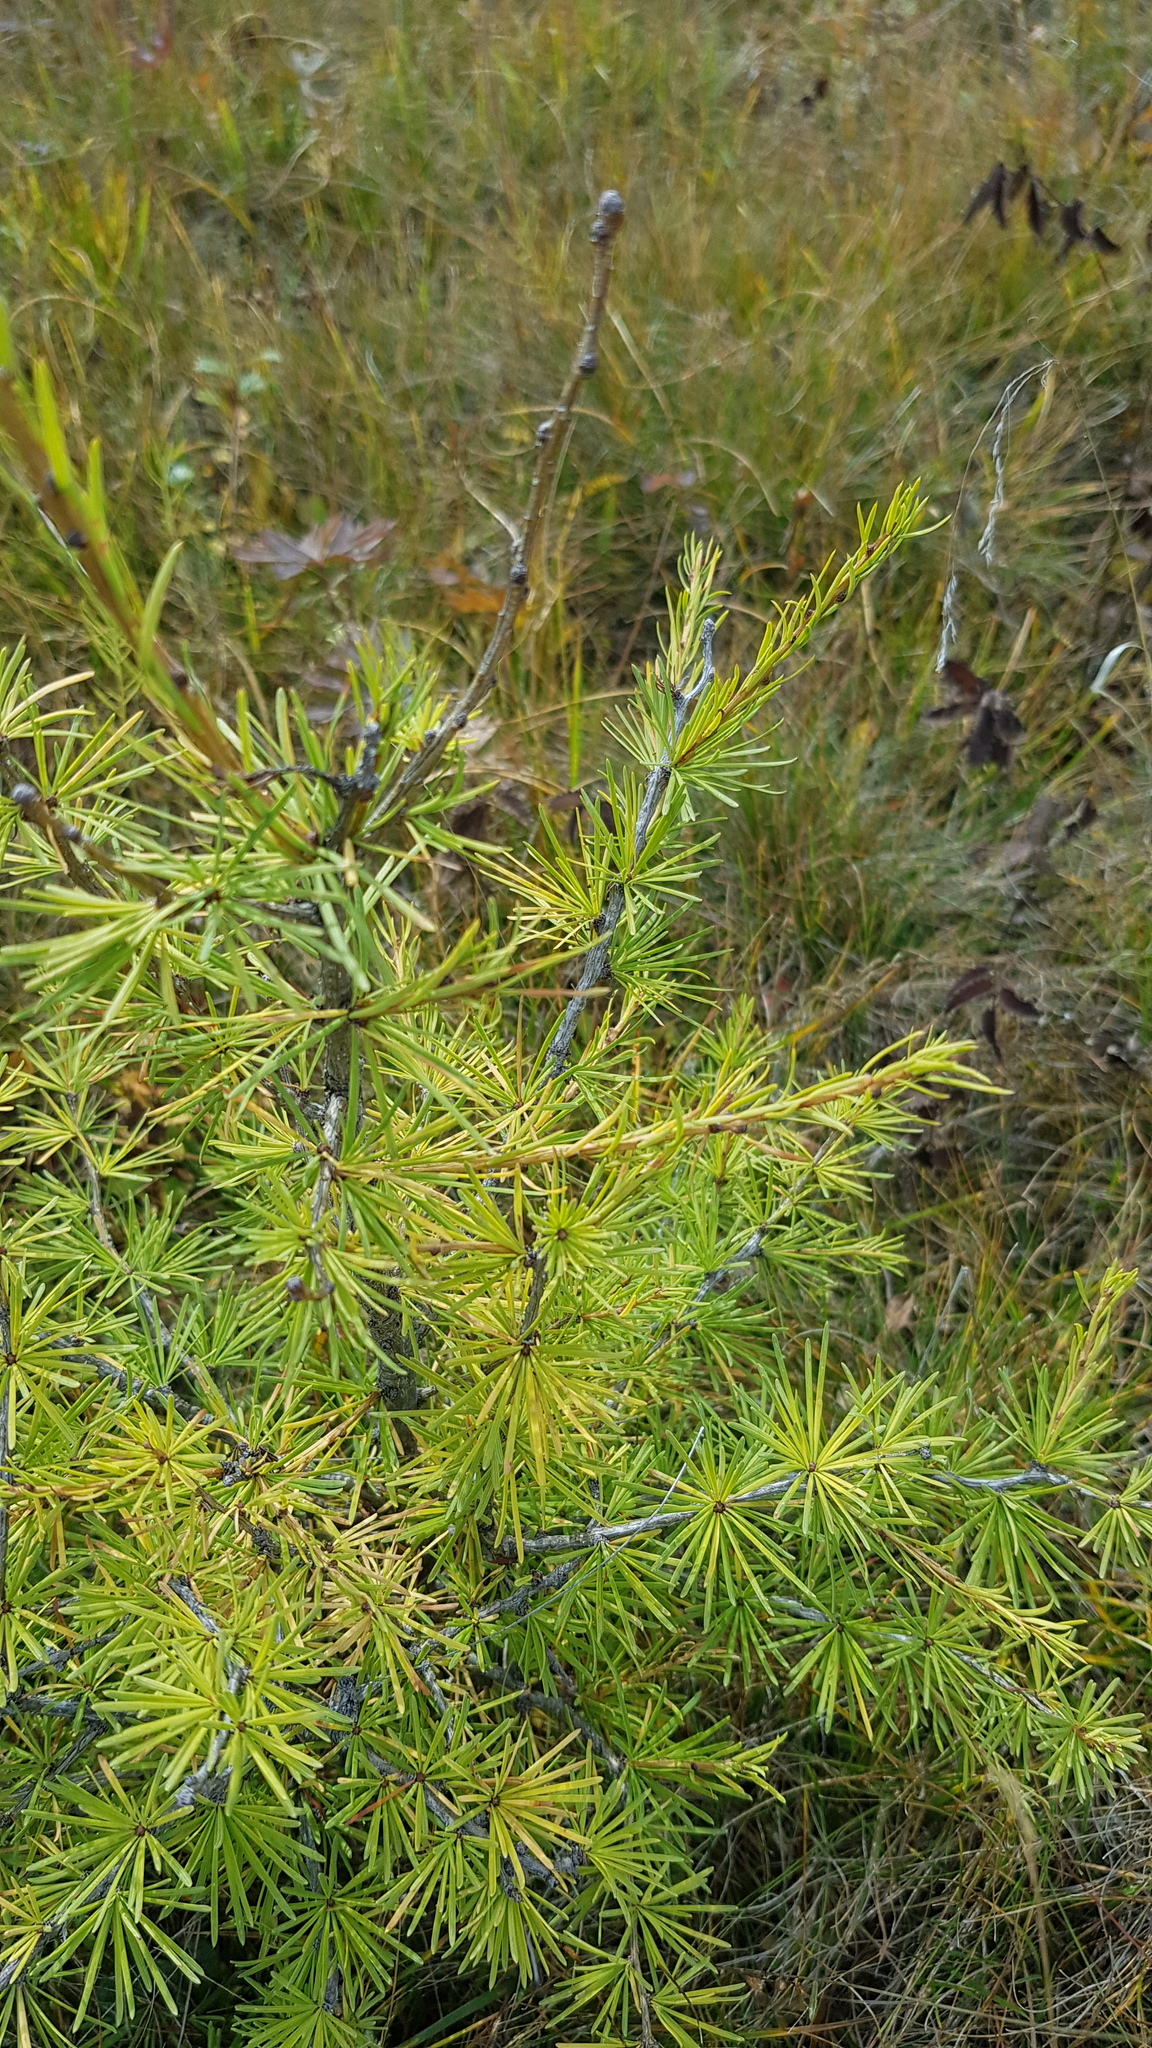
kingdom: Plantae
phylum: Tracheophyta
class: Pinopsida
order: Pinales
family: Pinaceae
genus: Larix
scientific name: Larix sibirica
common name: Siberian larch
